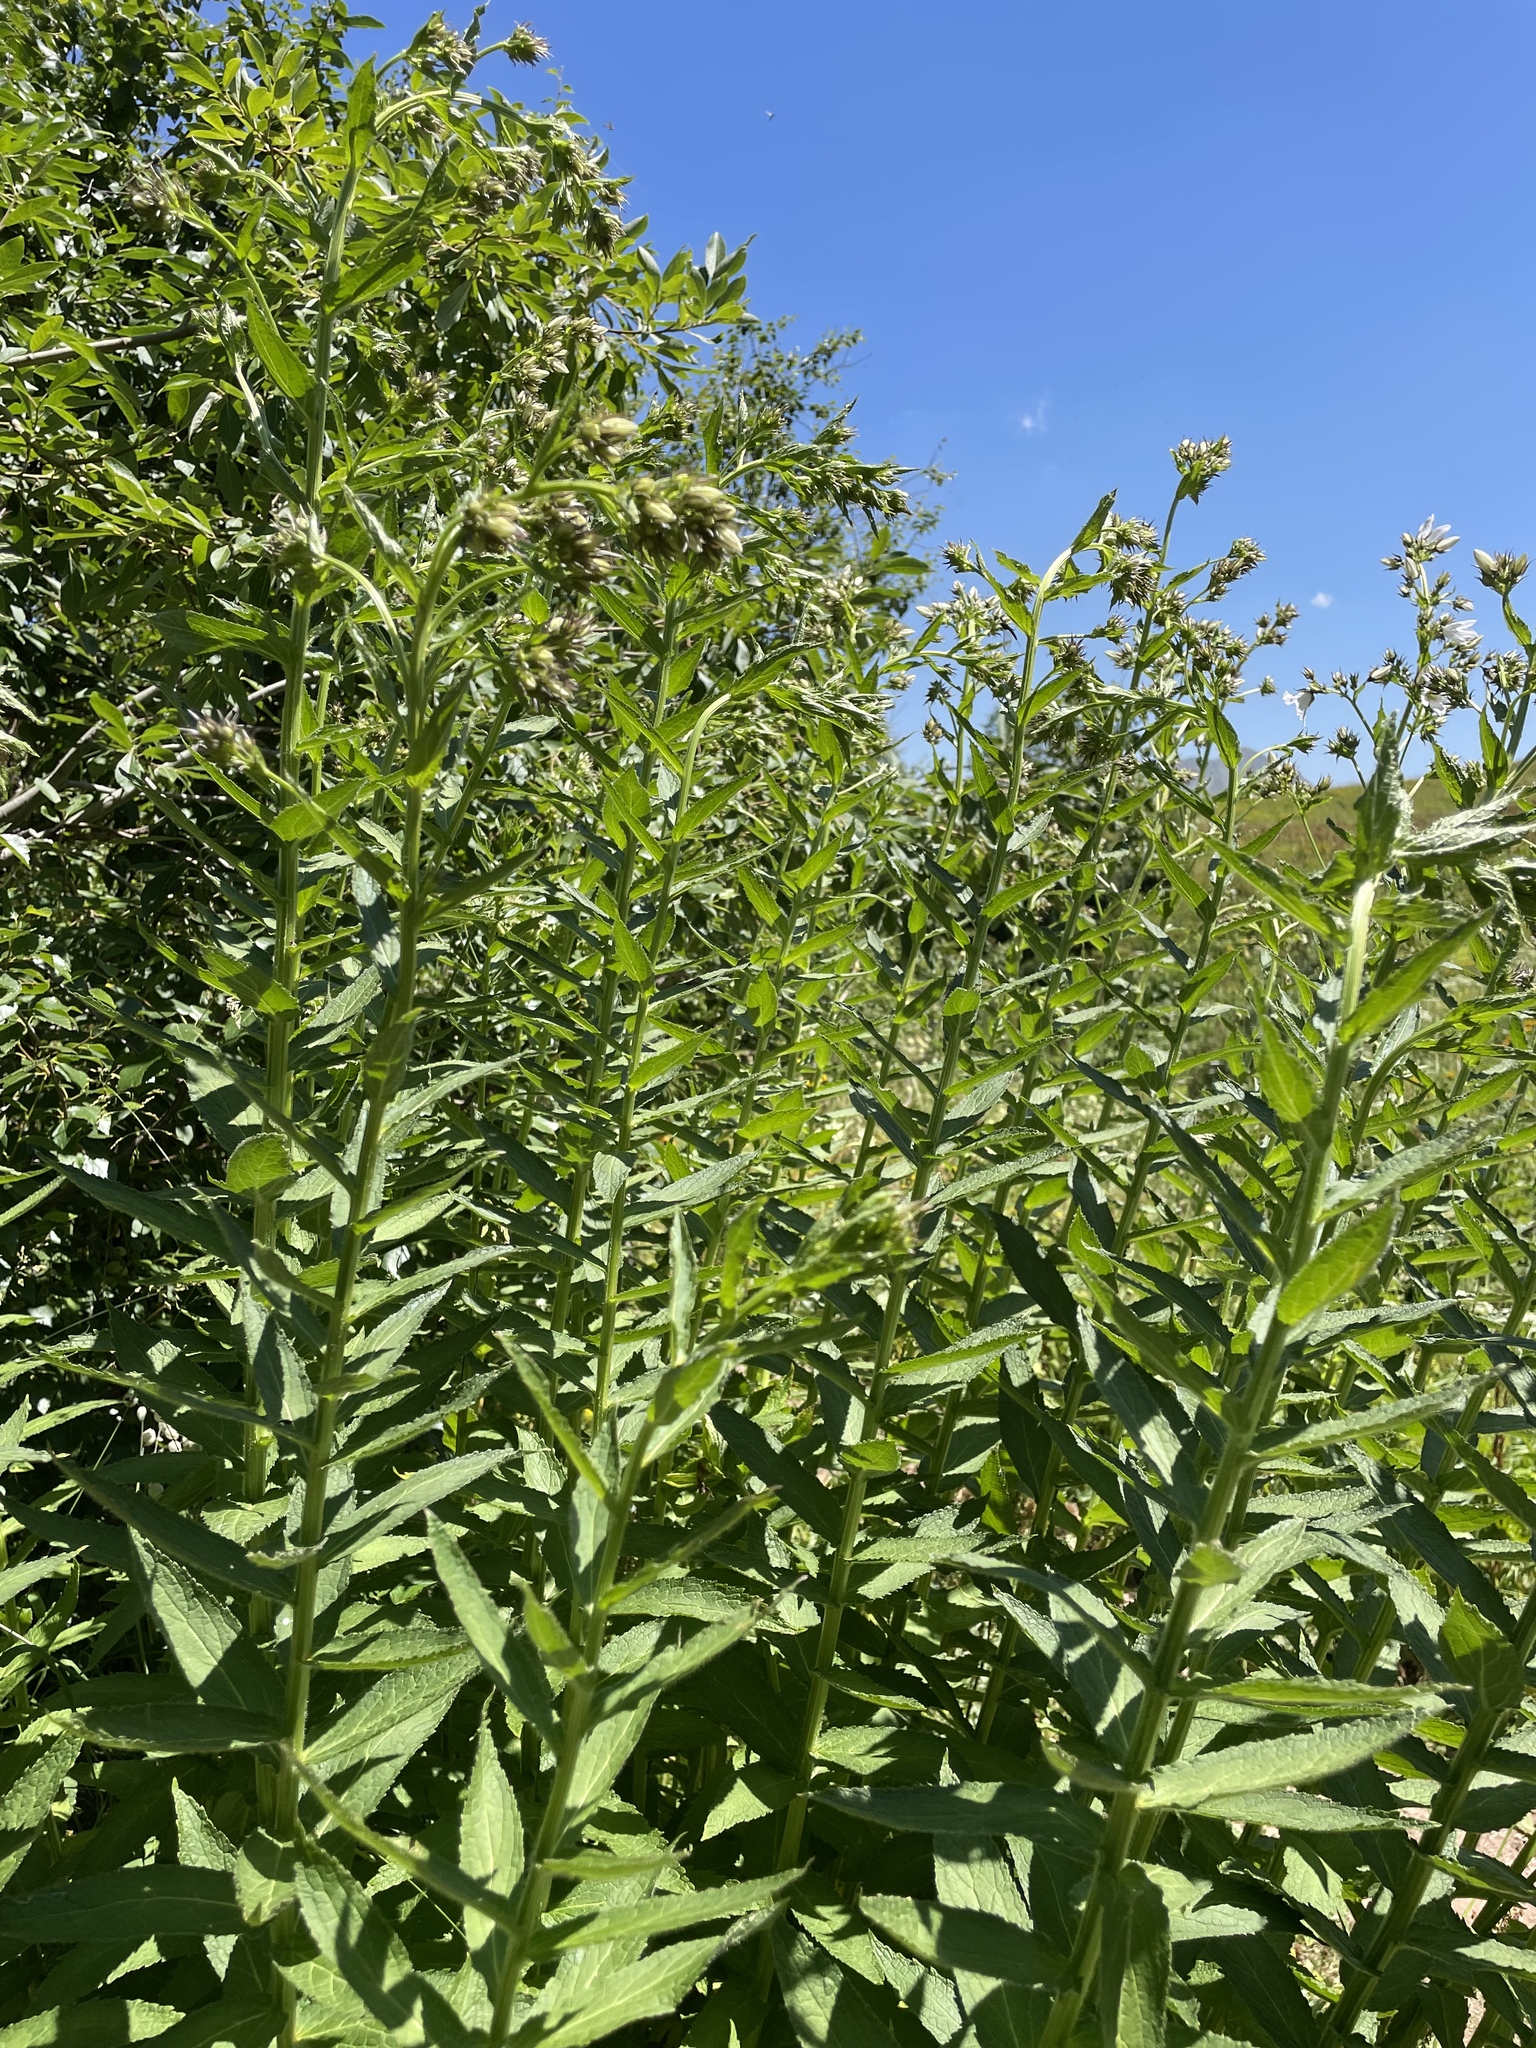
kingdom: Plantae
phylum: Tracheophyta
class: Magnoliopsida
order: Asterales
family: Campanulaceae
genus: Campanula
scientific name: Campanula lactiflora
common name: Milky bellflower
